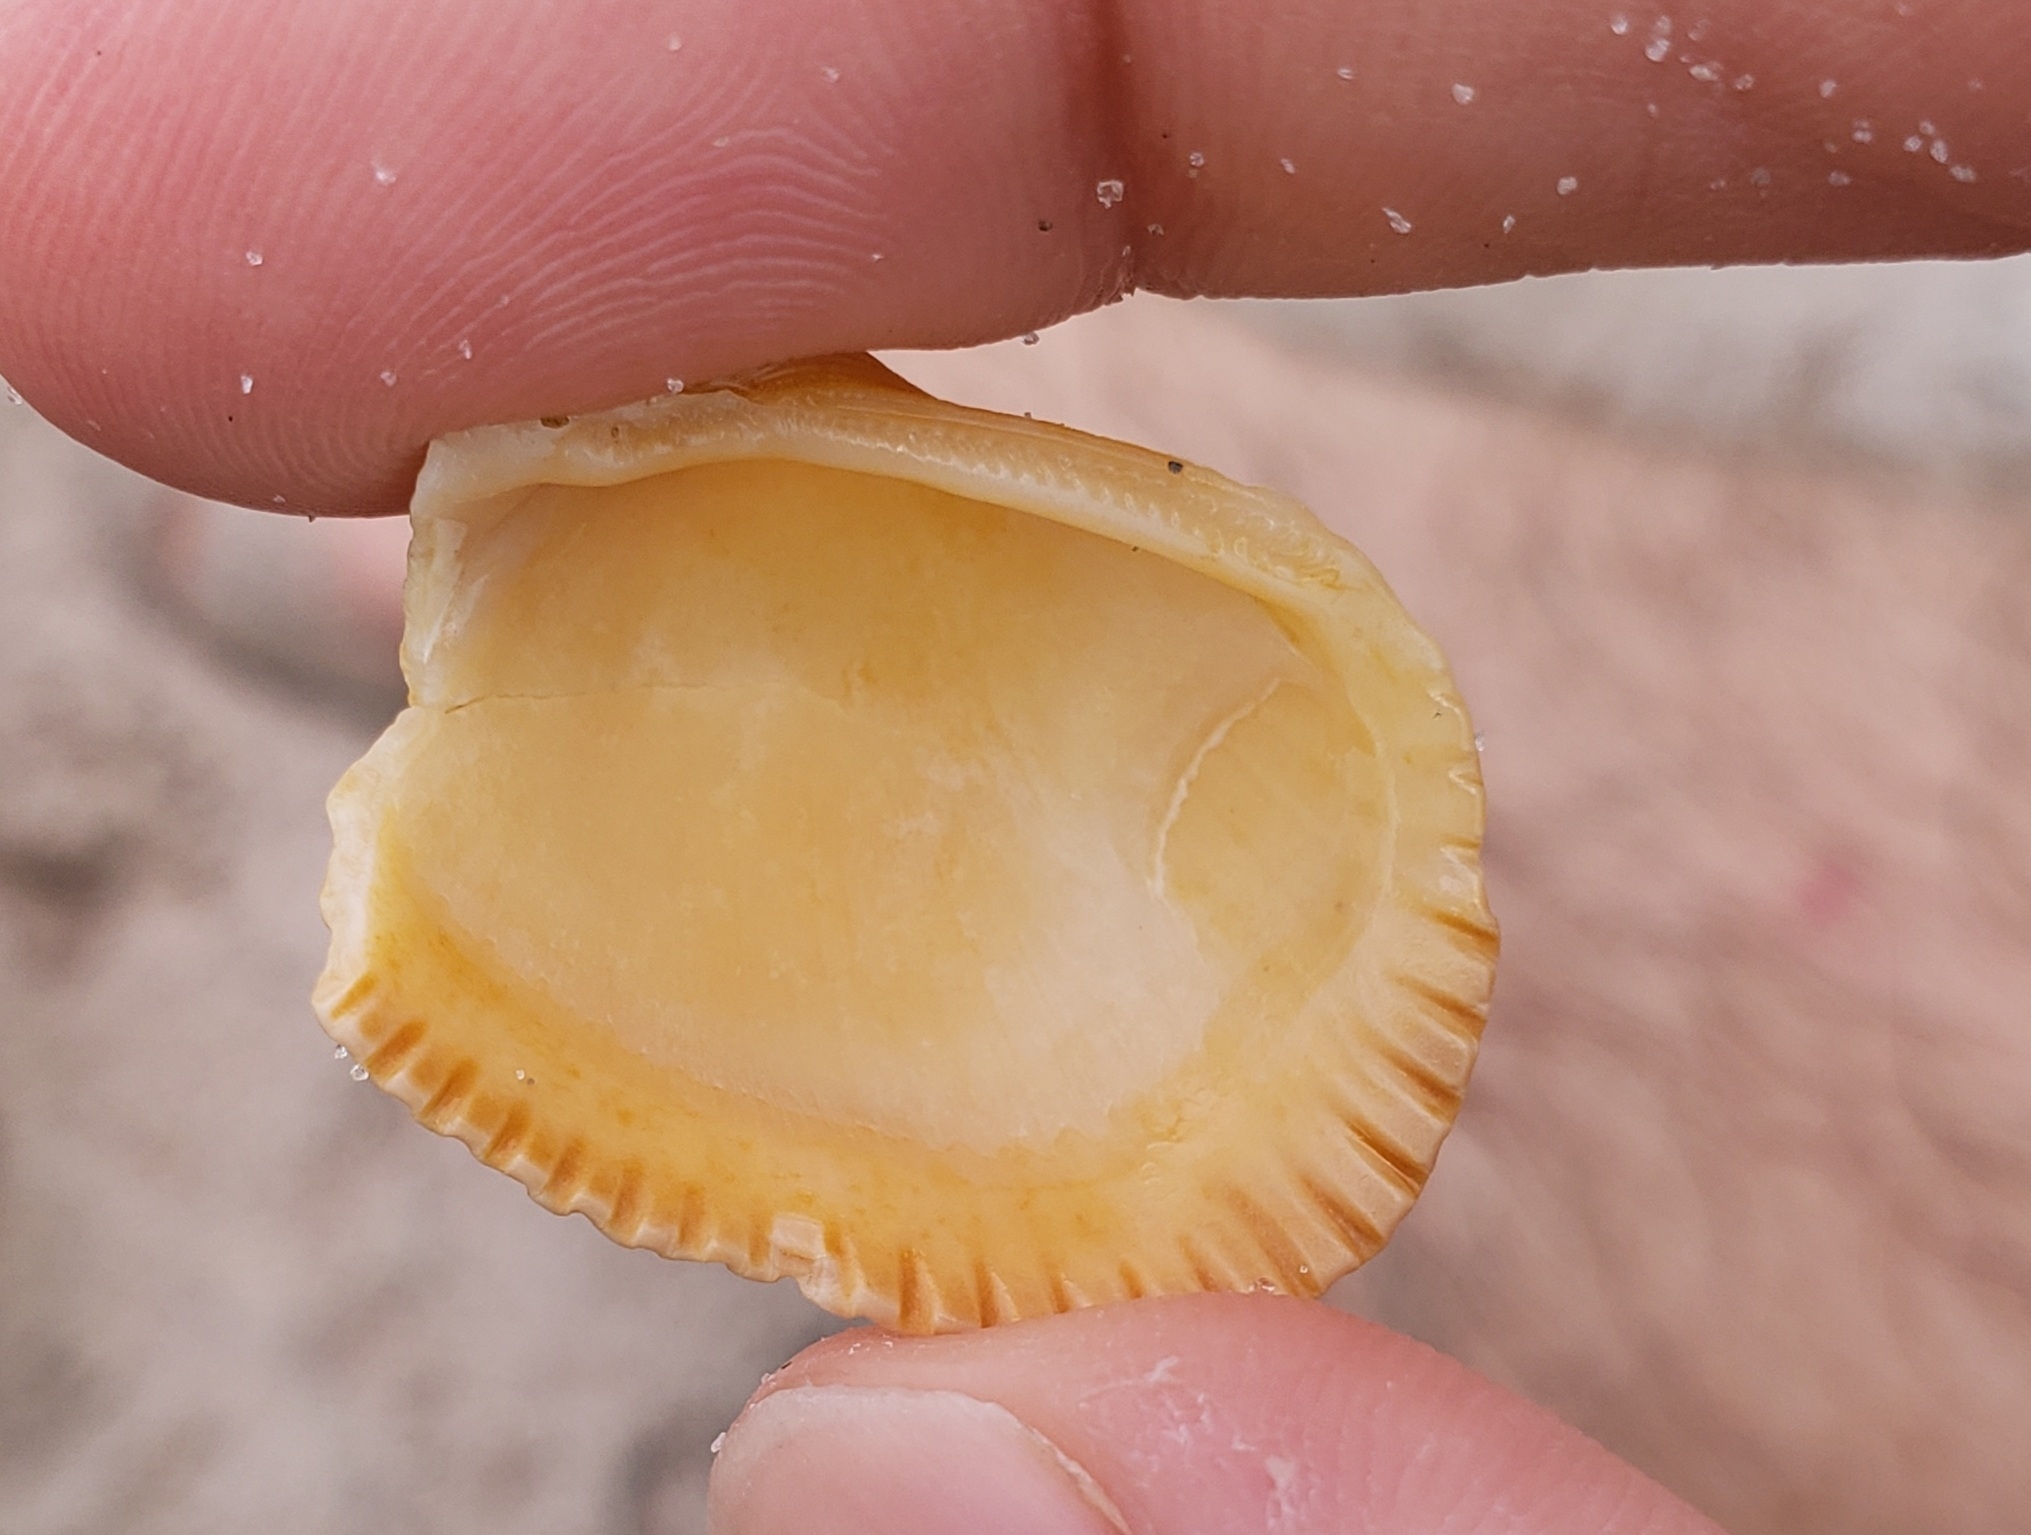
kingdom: Animalia
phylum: Mollusca
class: Bivalvia
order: Arcida
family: Arcidae
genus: Lunarca
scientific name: Lunarca ovalis
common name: Blood ark
